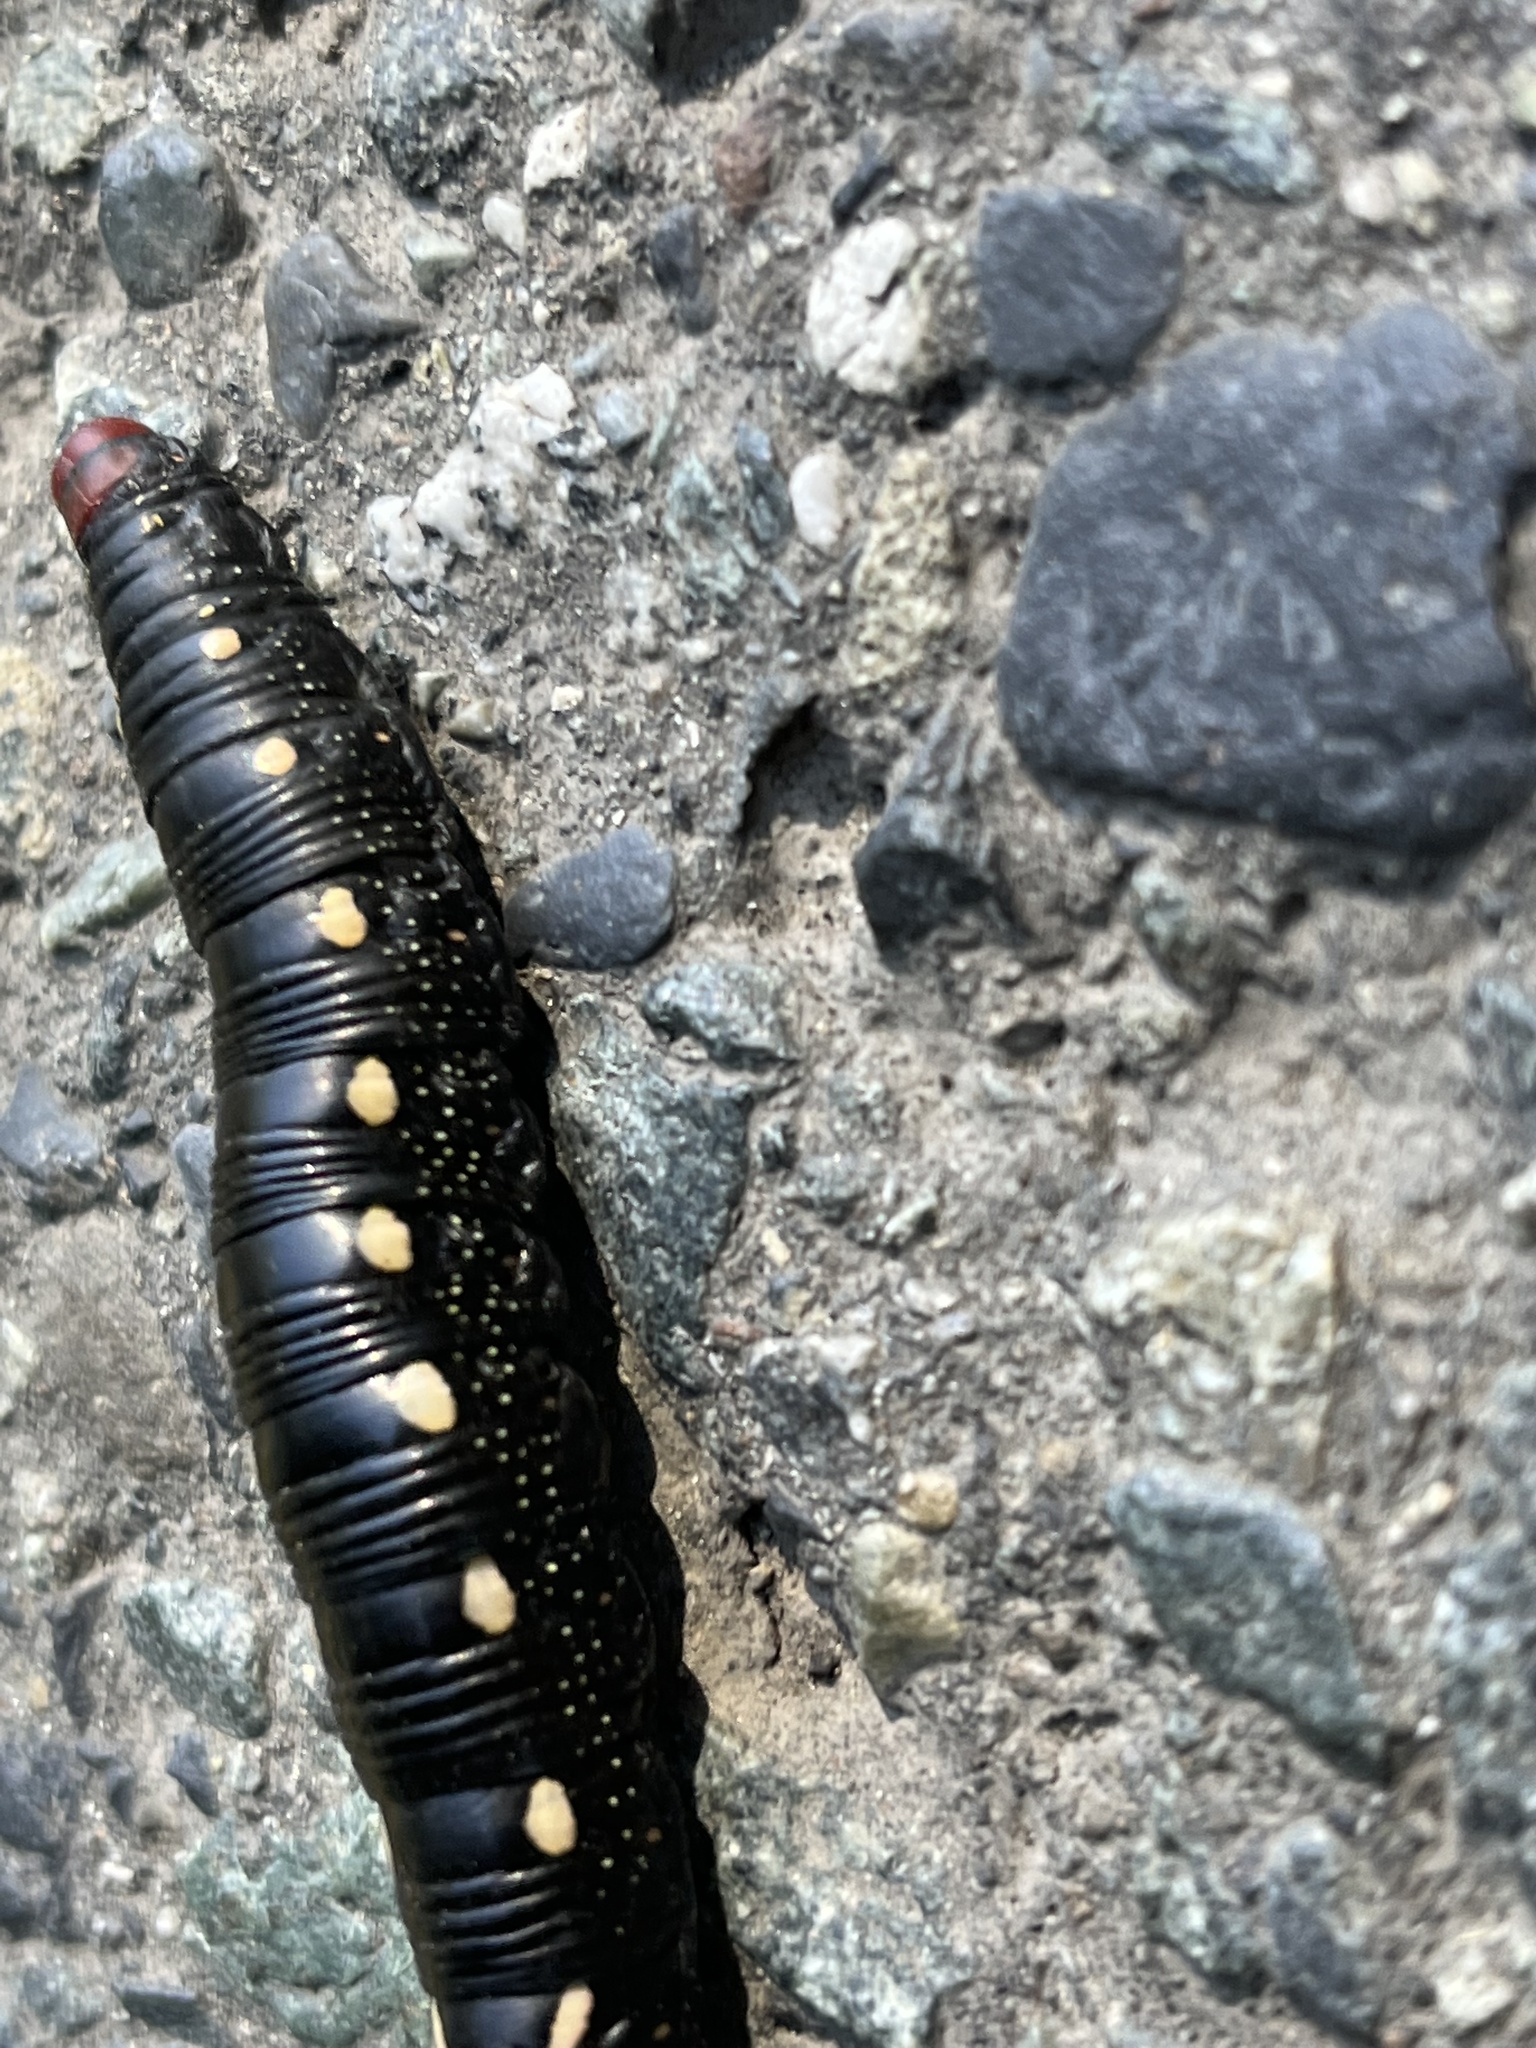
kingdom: Animalia
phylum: Arthropoda
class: Insecta
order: Lepidoptera
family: Sphingidae
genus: Hyles
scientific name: Hyles gallii
